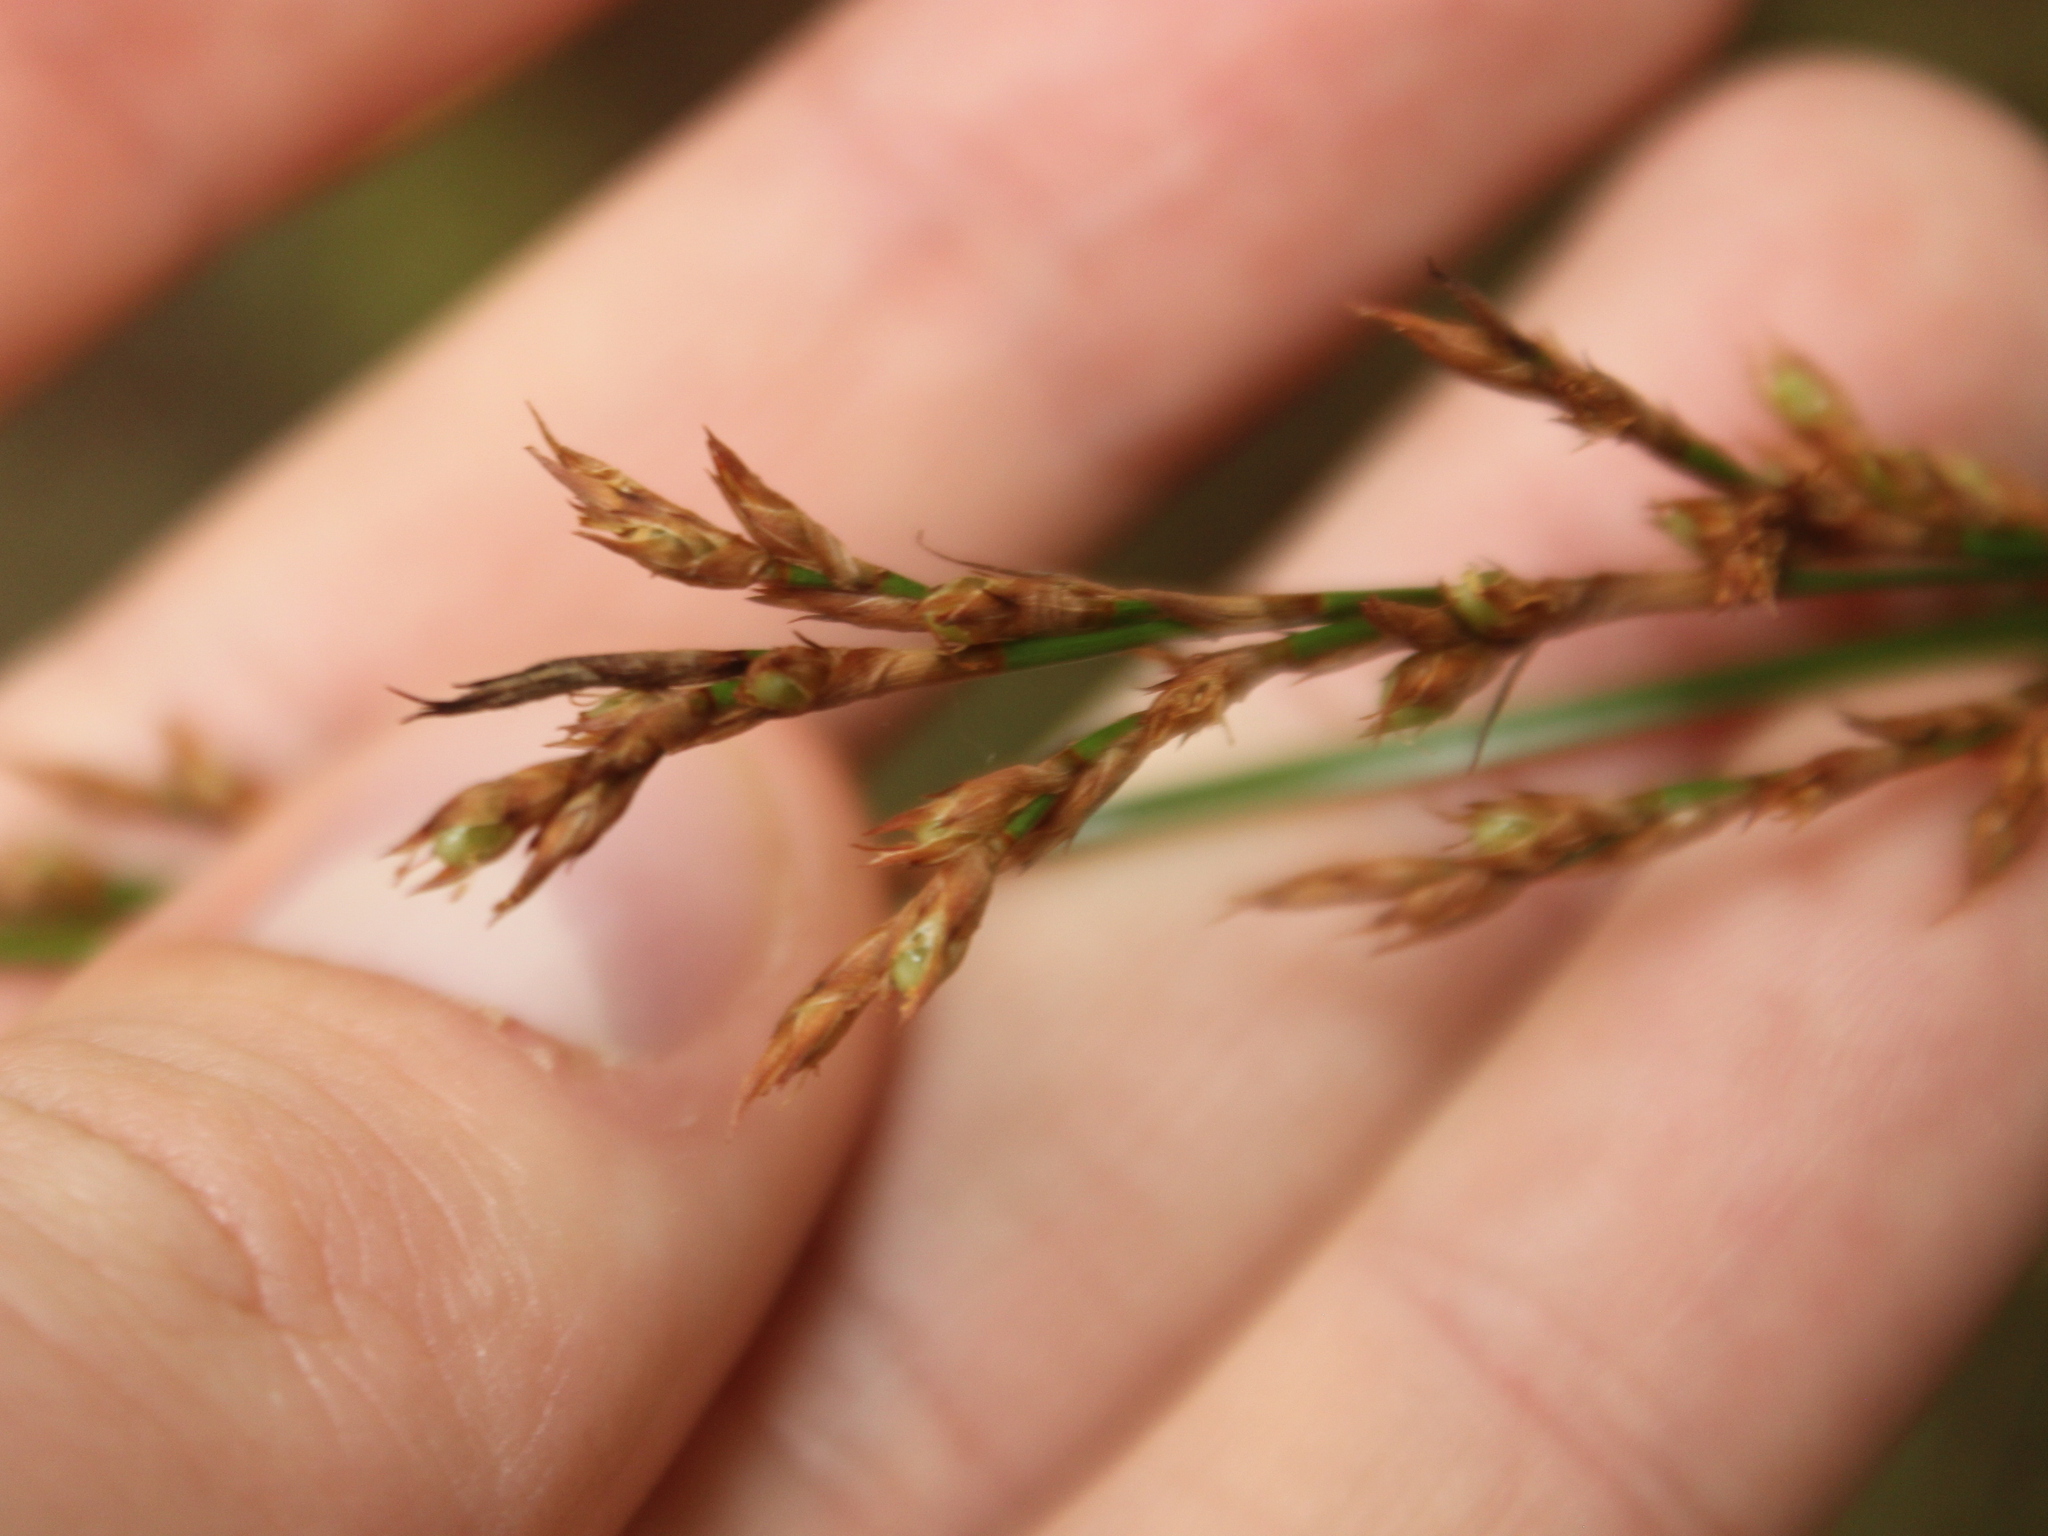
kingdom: Plantae
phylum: Tracheophyta
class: Liliopsida
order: Poales
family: Cyperaceae
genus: Lepidosperma
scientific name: Lepidosperma laterale
